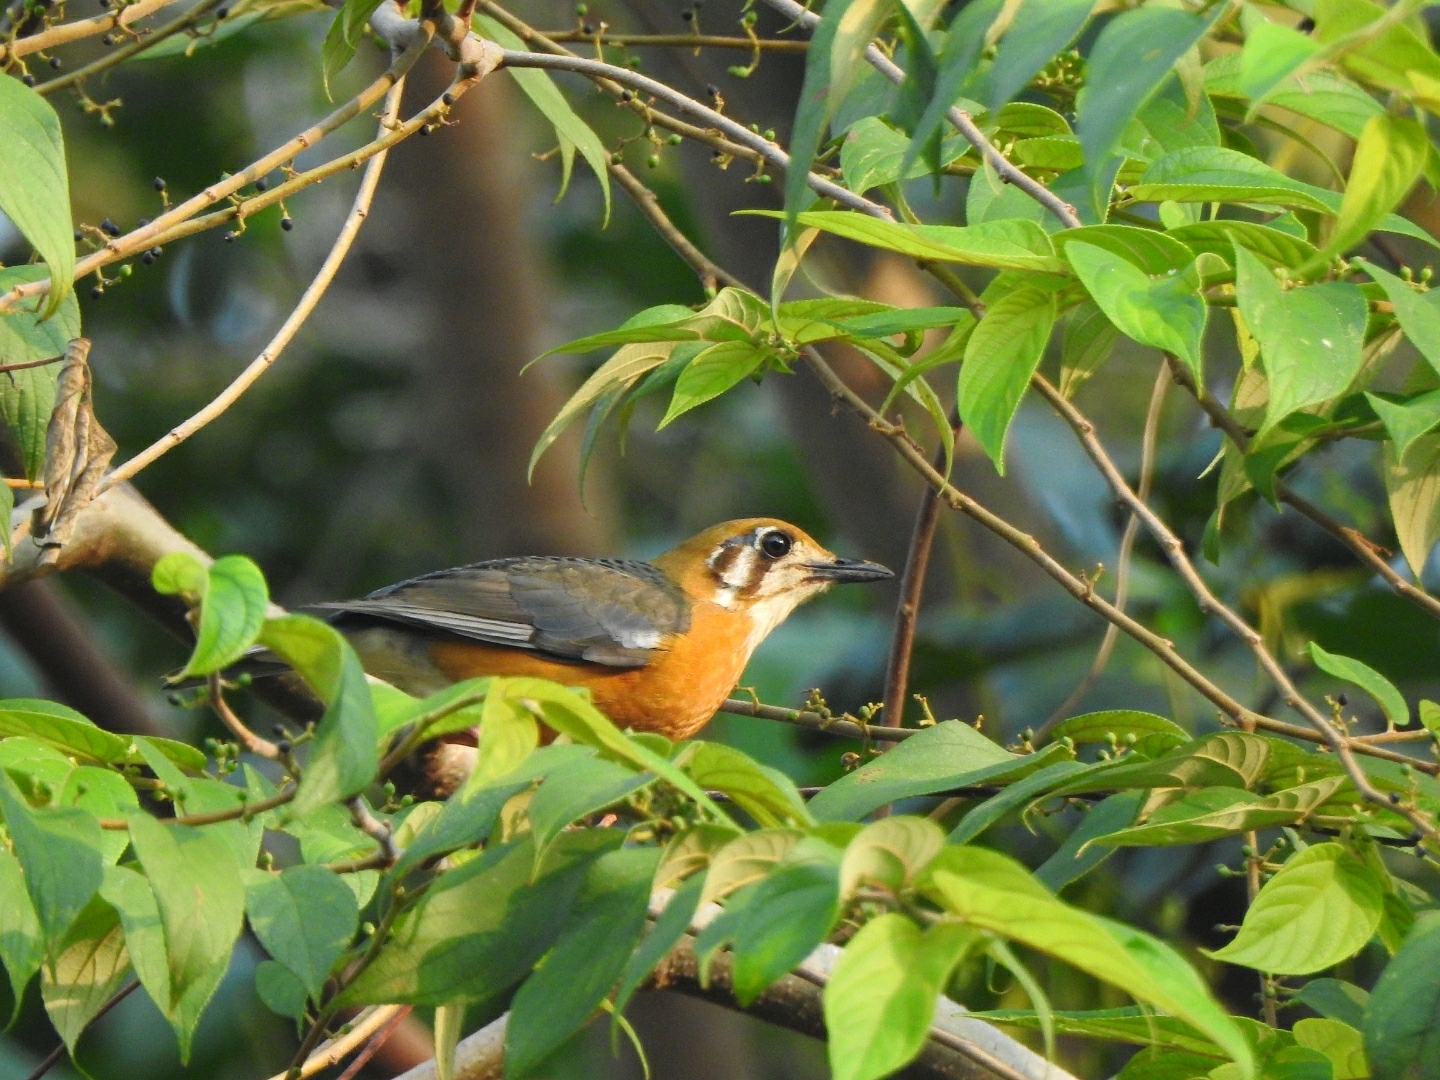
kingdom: Animalia
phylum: Chordata
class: Aves
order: Passeriformes
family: Turdidae
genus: Geokichla
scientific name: Geokichla citrina
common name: Orange-headed thrush
